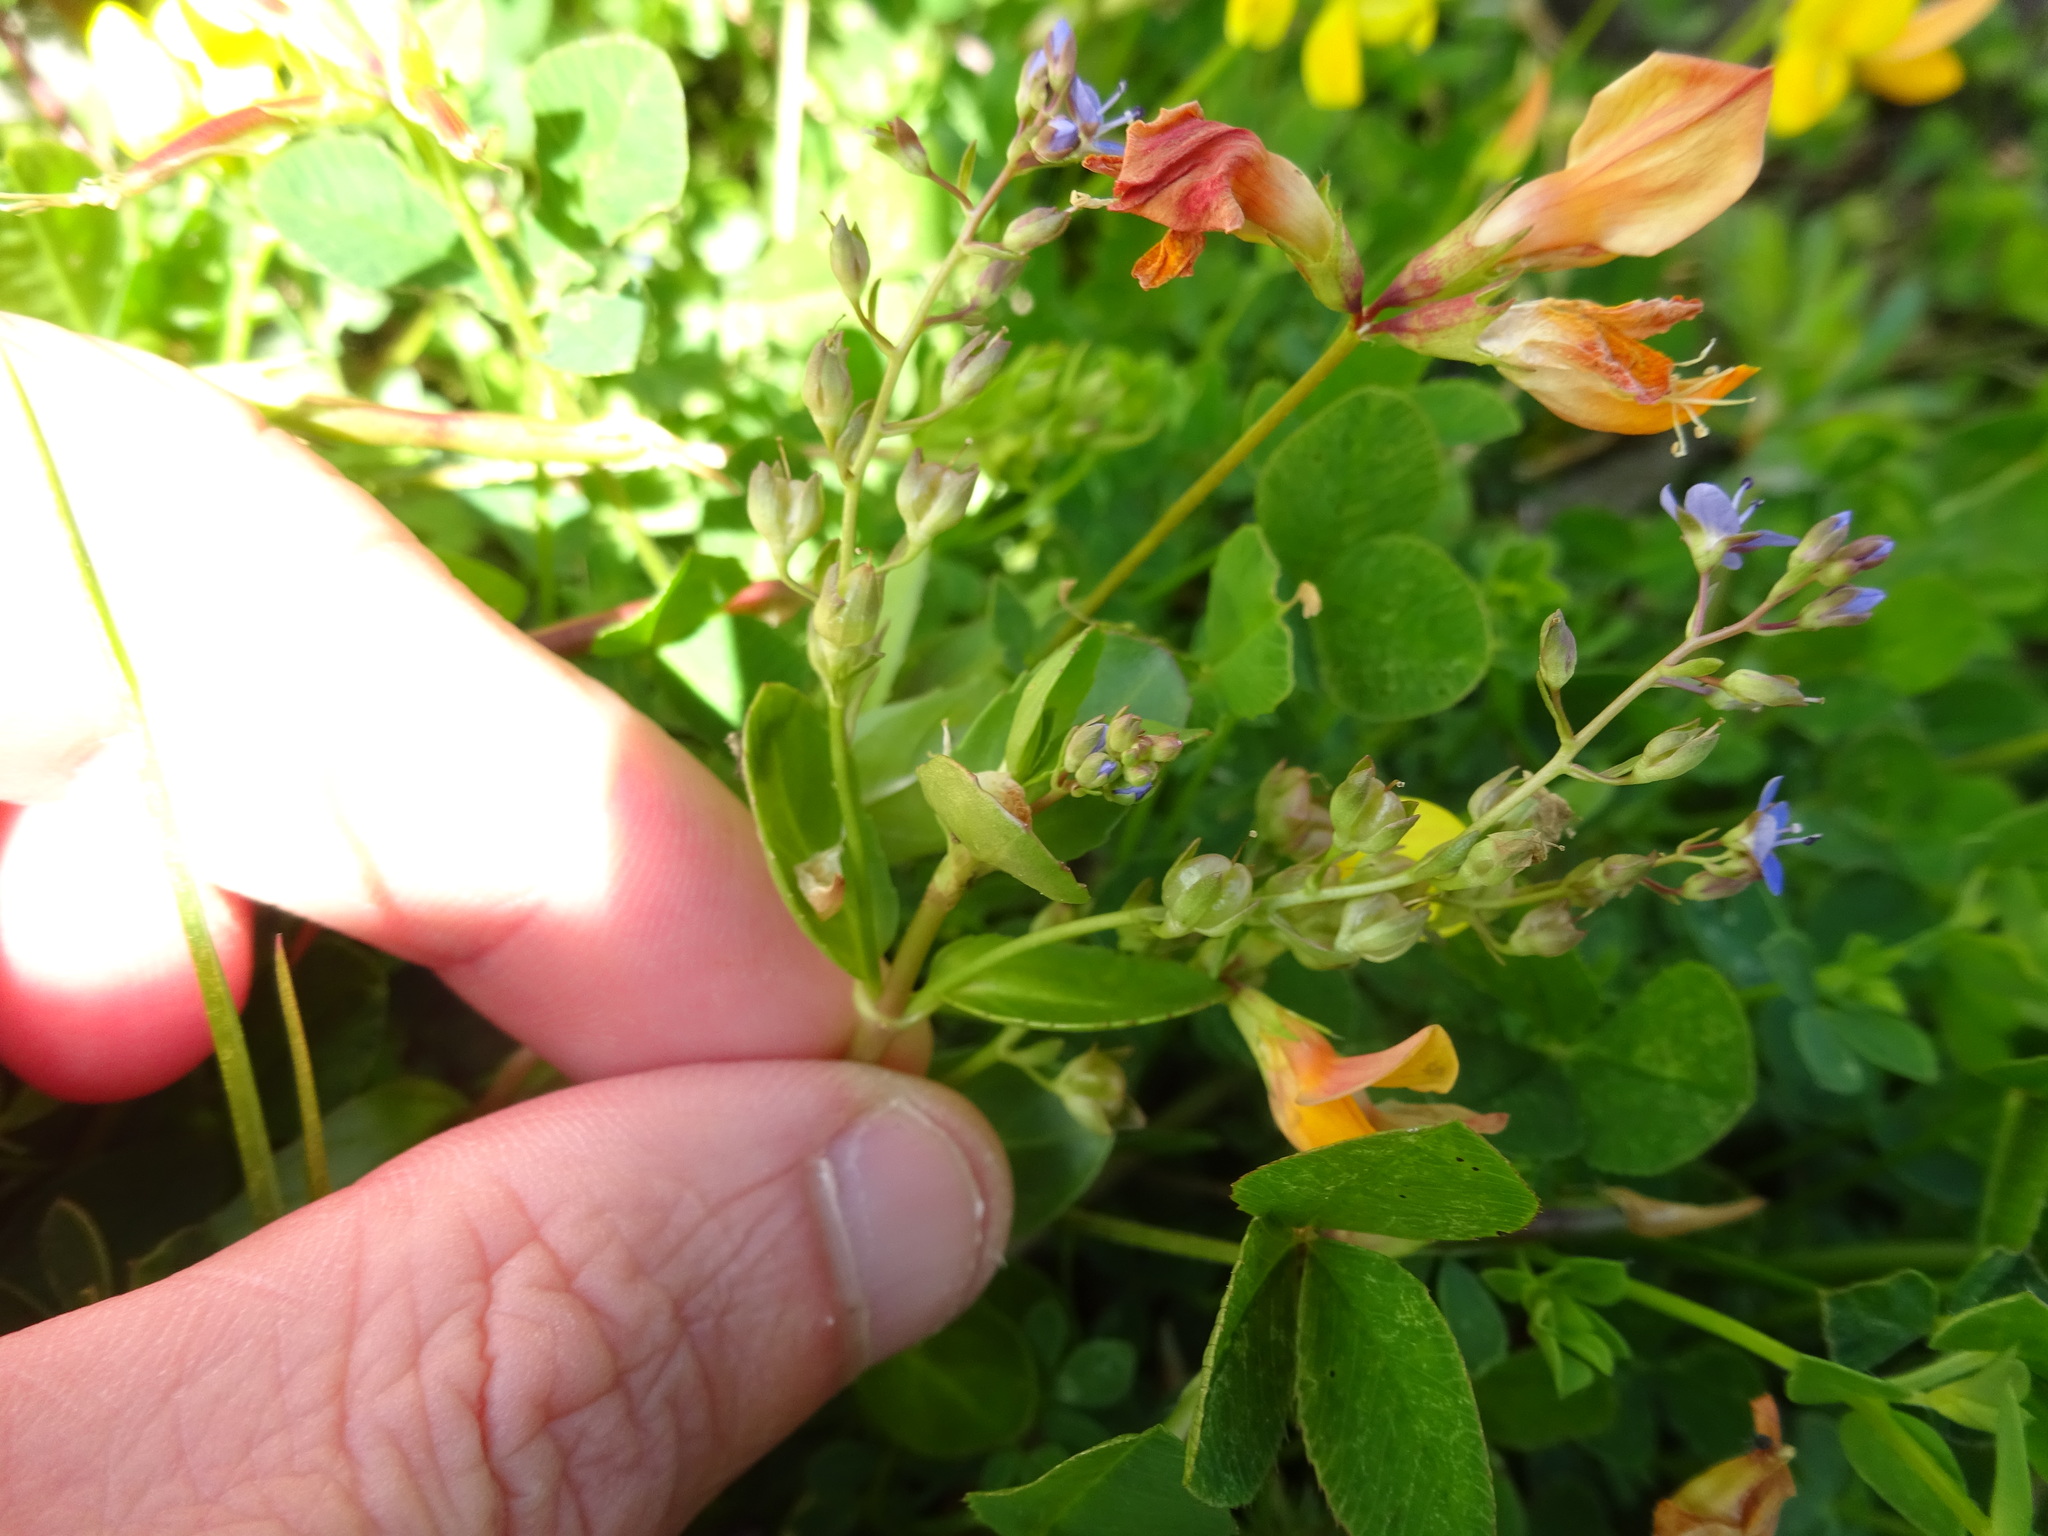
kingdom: Plantae
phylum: Tracheophyta
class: Magnoliopsida
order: Lamiales
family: Plantaginaceae
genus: Veronica
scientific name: Veronica beccabunga
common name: Brooklime
